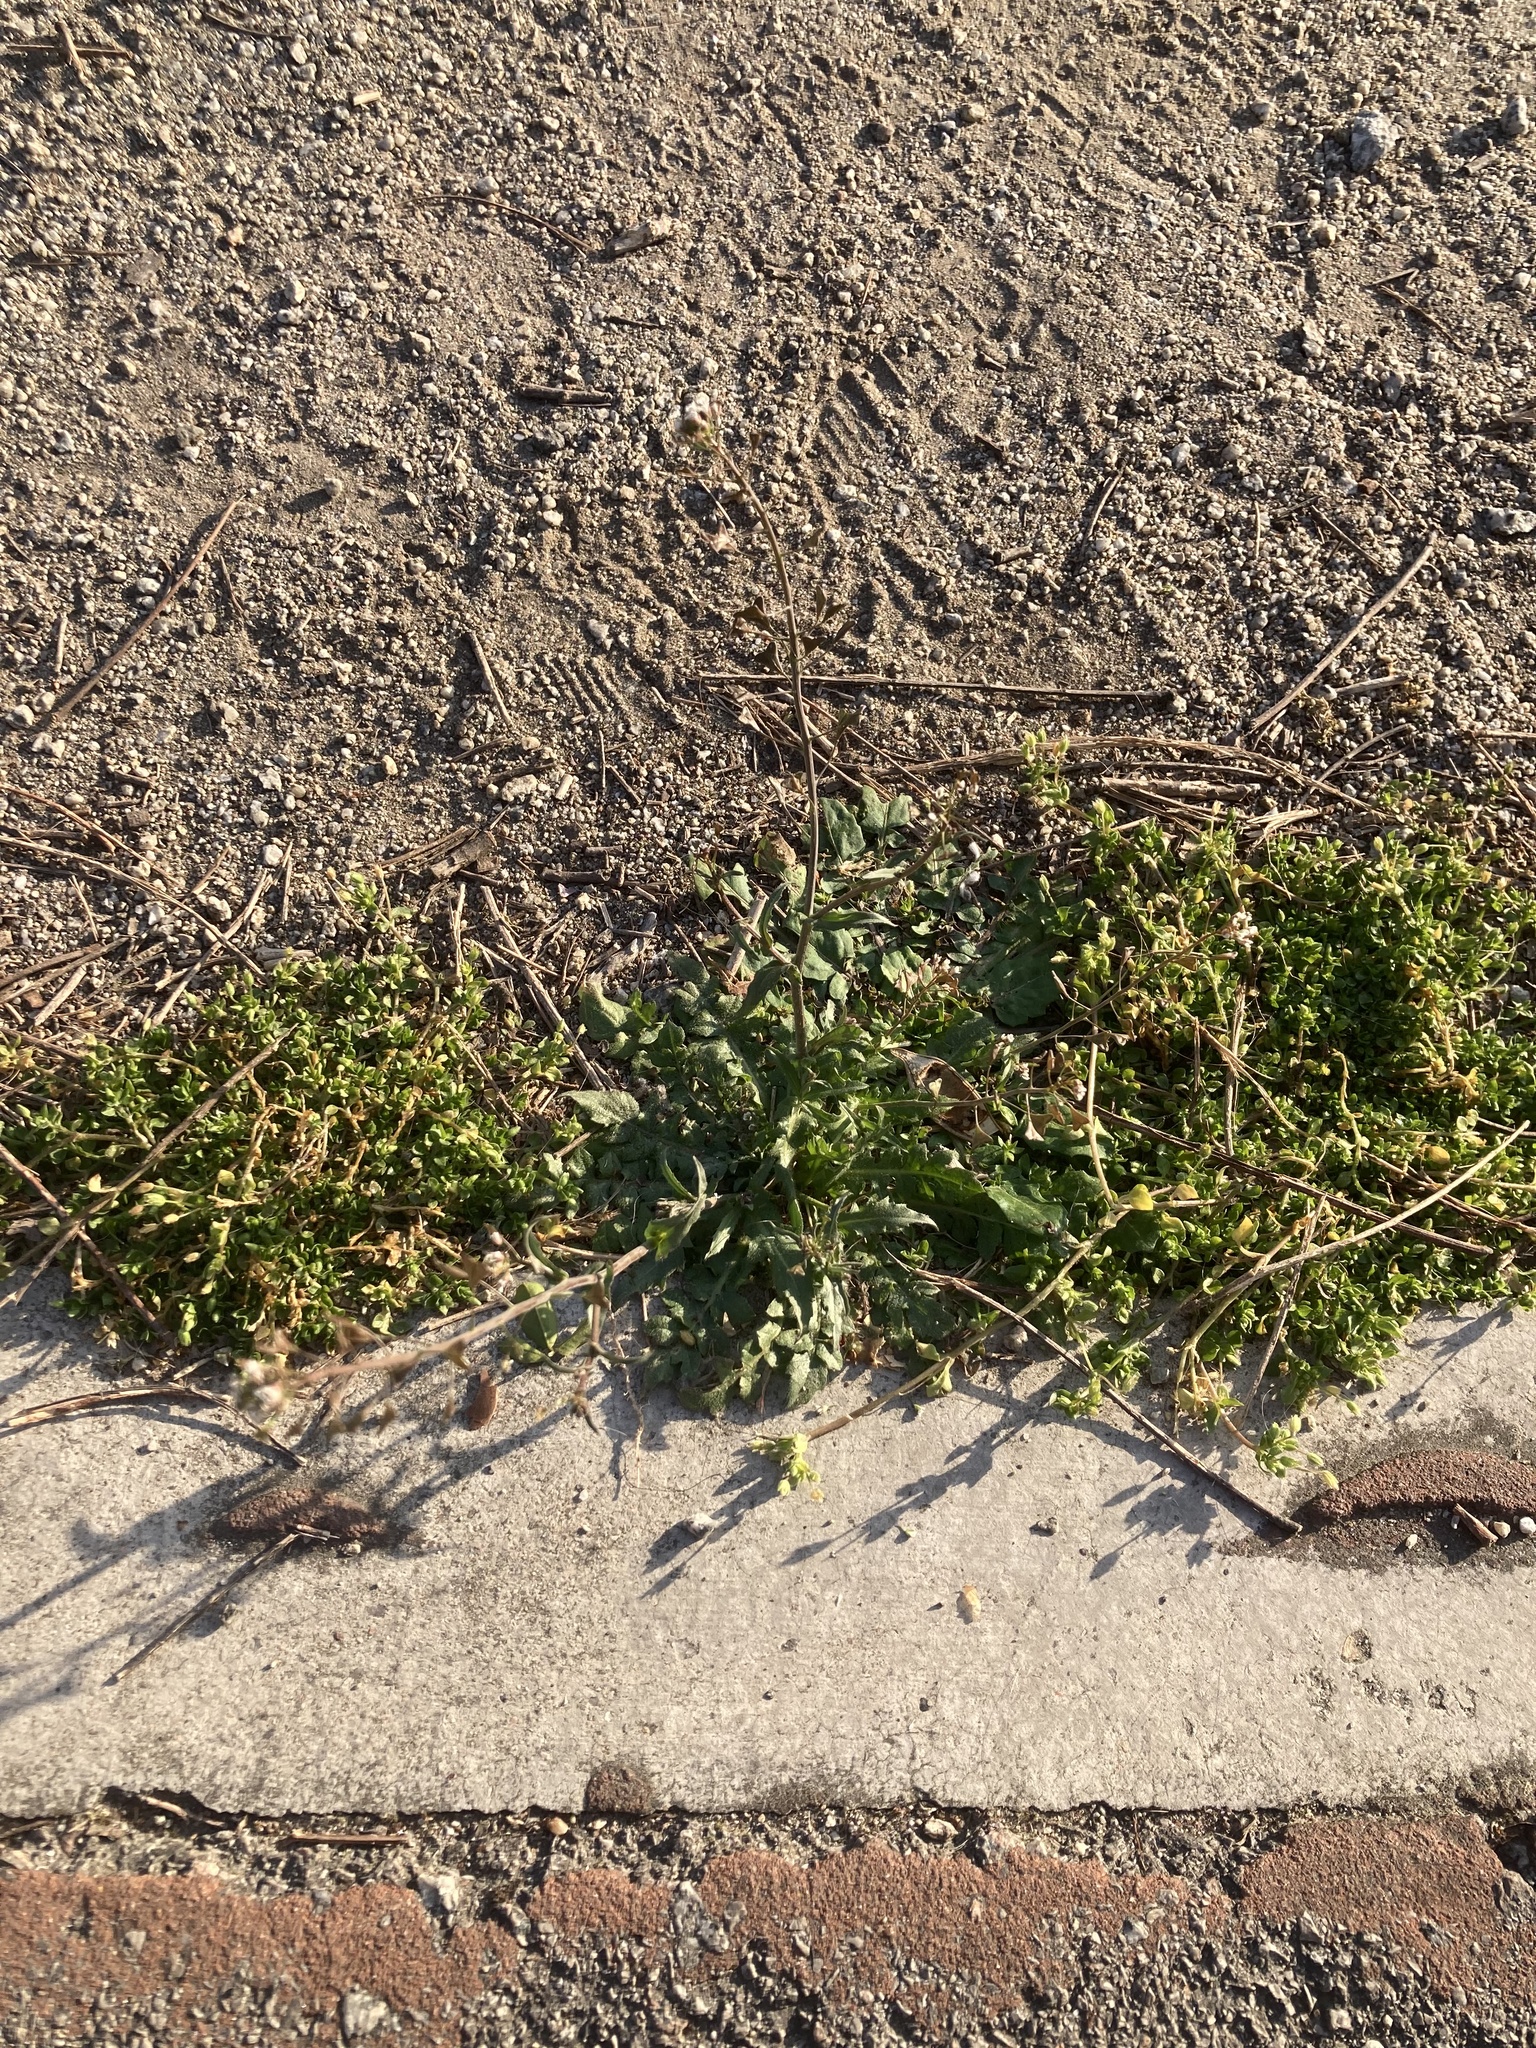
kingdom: Plantae
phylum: Tracheophyta
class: Magnoliopsida
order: Brassicales
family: Brassicaceae
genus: Capsella
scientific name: Capsella bursa-pastoris
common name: Shepherd's purse
